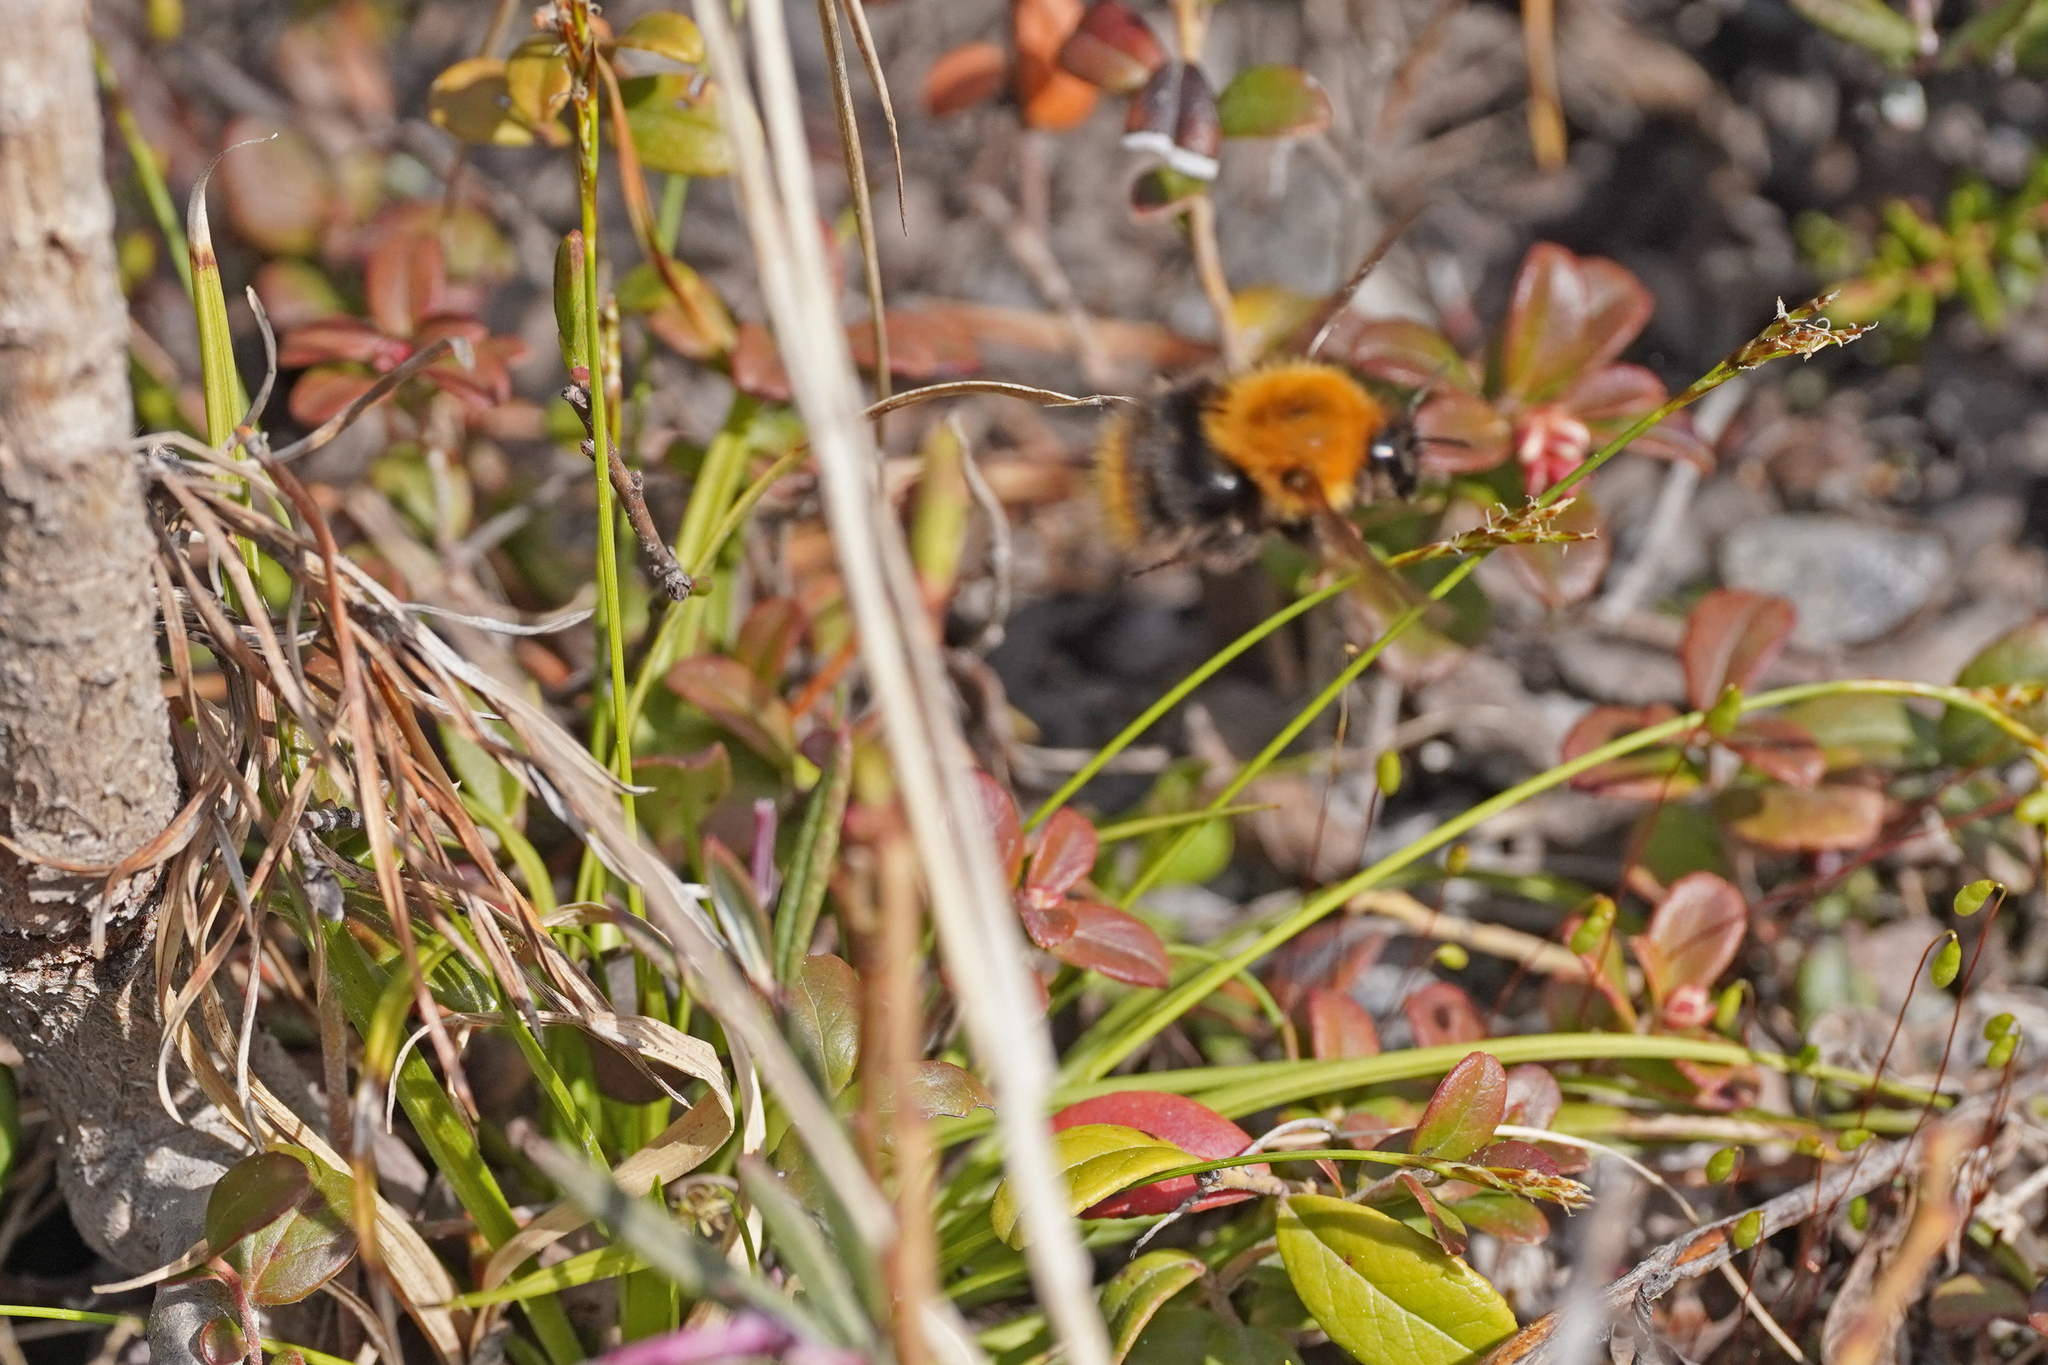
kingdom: Animalia
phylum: Arthropoda
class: Insecta
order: Hymenoptera
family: Apidae
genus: Bombus
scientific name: Bombus pascuorum
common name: Common carder bee
